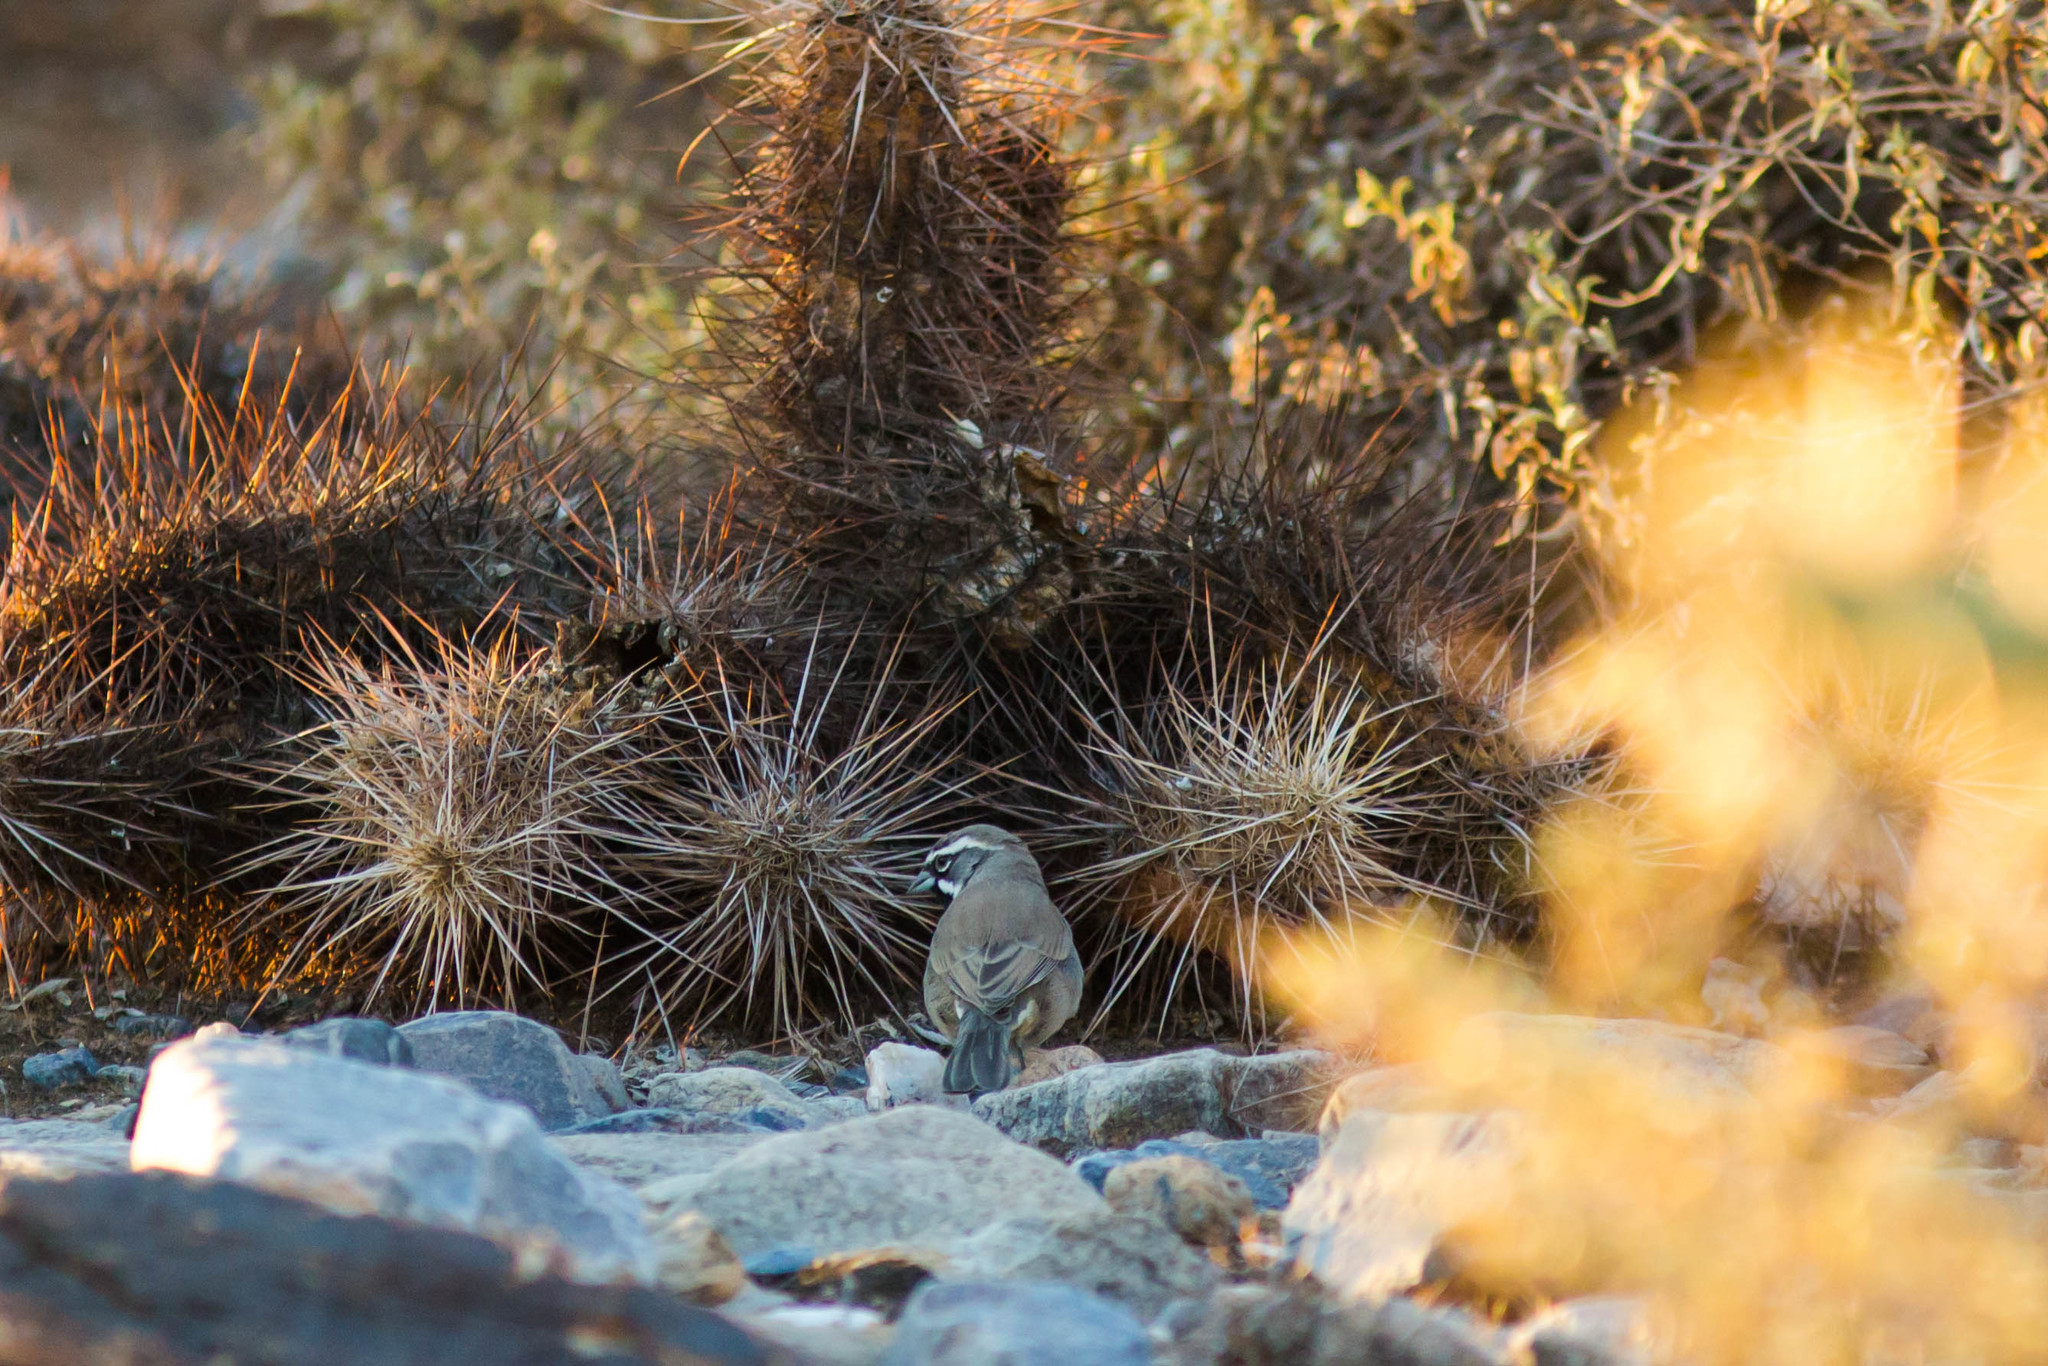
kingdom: Animalia
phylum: Chordata
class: Aves
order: Passeriformes
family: Passerellidae
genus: Amphispiza
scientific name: Amphispiza bilineata
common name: Black-throated sparrow
